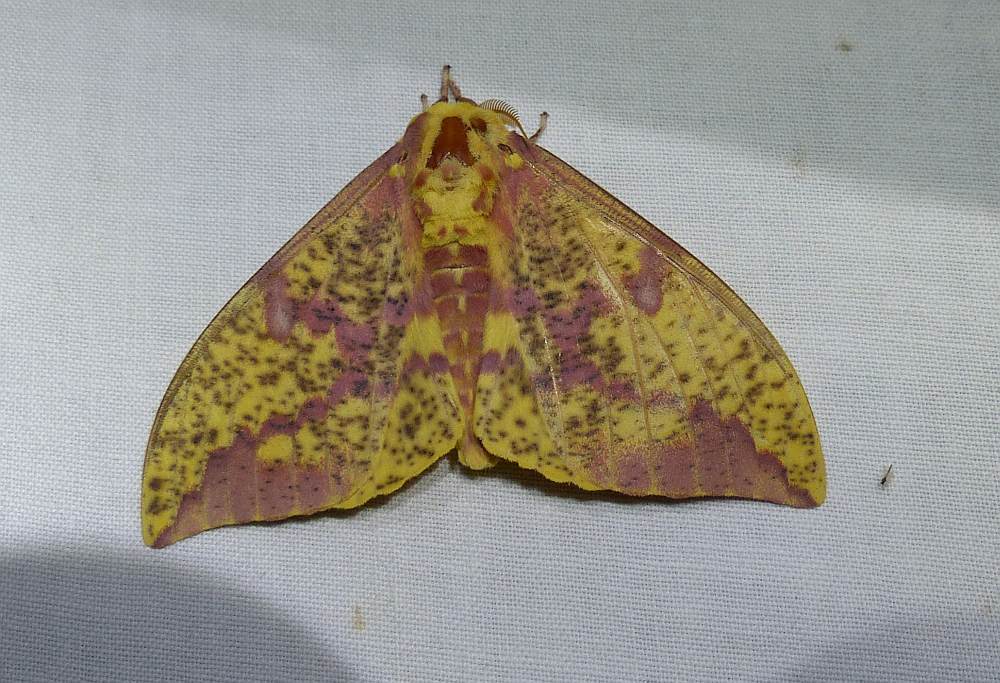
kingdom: Animalia
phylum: Arthropoda
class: Insecta
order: Lepidoptera
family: Saturniidae
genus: Eacles
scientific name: Eacles
